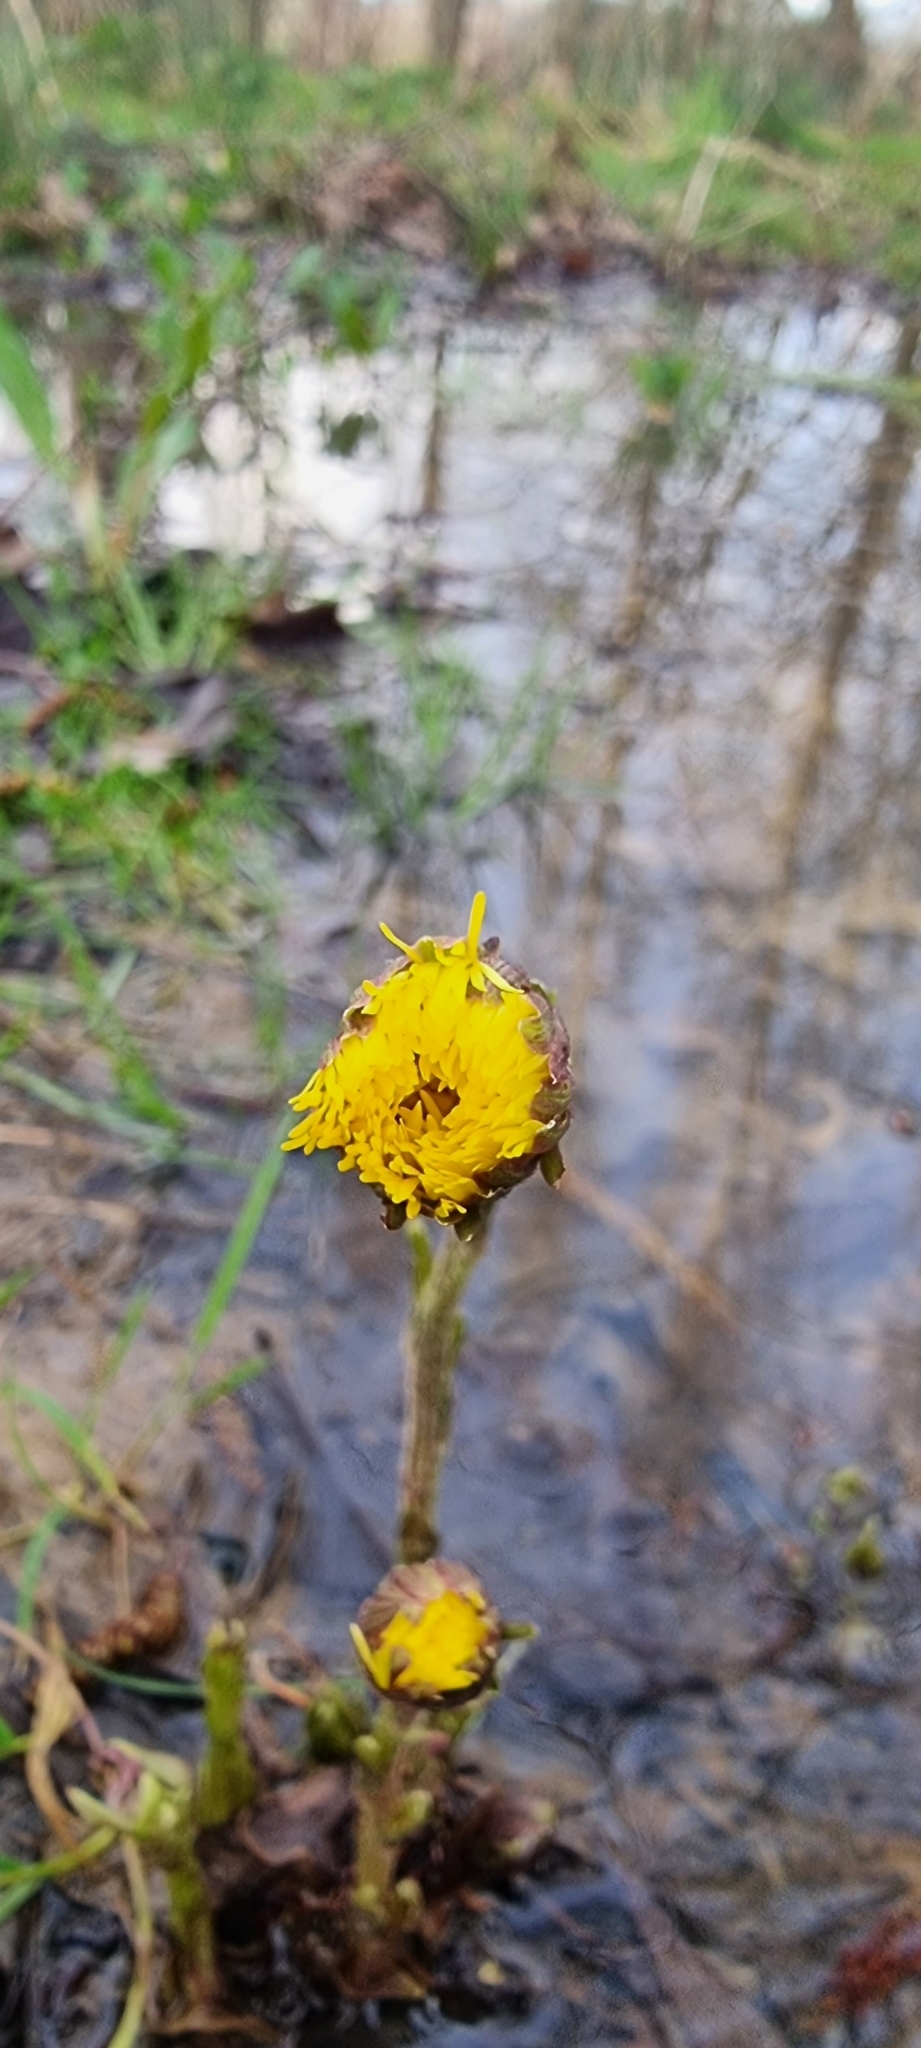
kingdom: Plantae
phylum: Tracheophyta
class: Magnoliopsida
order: Asterales
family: Asteraceae
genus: Tussilago
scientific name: Tussilago farfara
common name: Coltsfoot
